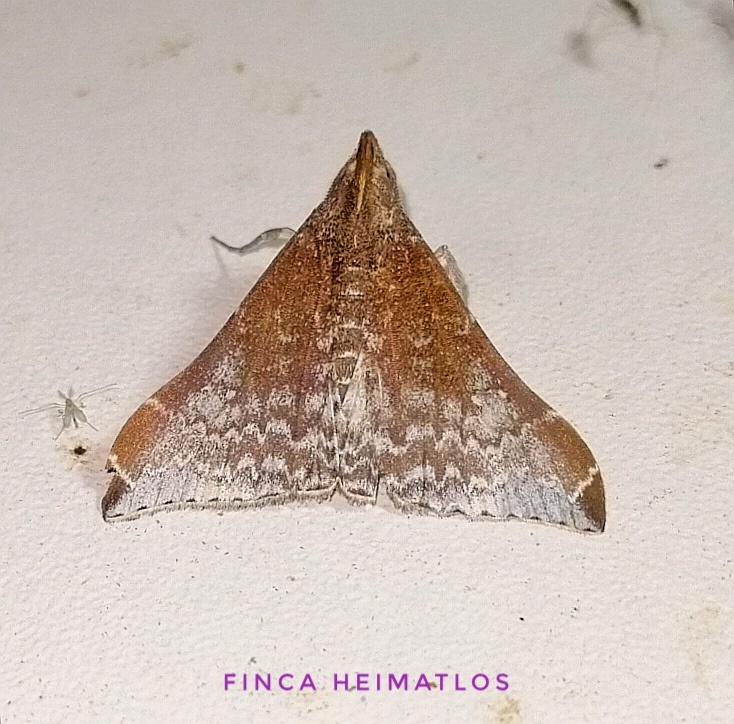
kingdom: Animalia
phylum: Arthropoda
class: Insecta
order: Lepidoptera
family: Erebidae
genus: Neopalthis
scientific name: Neopalthis madates
